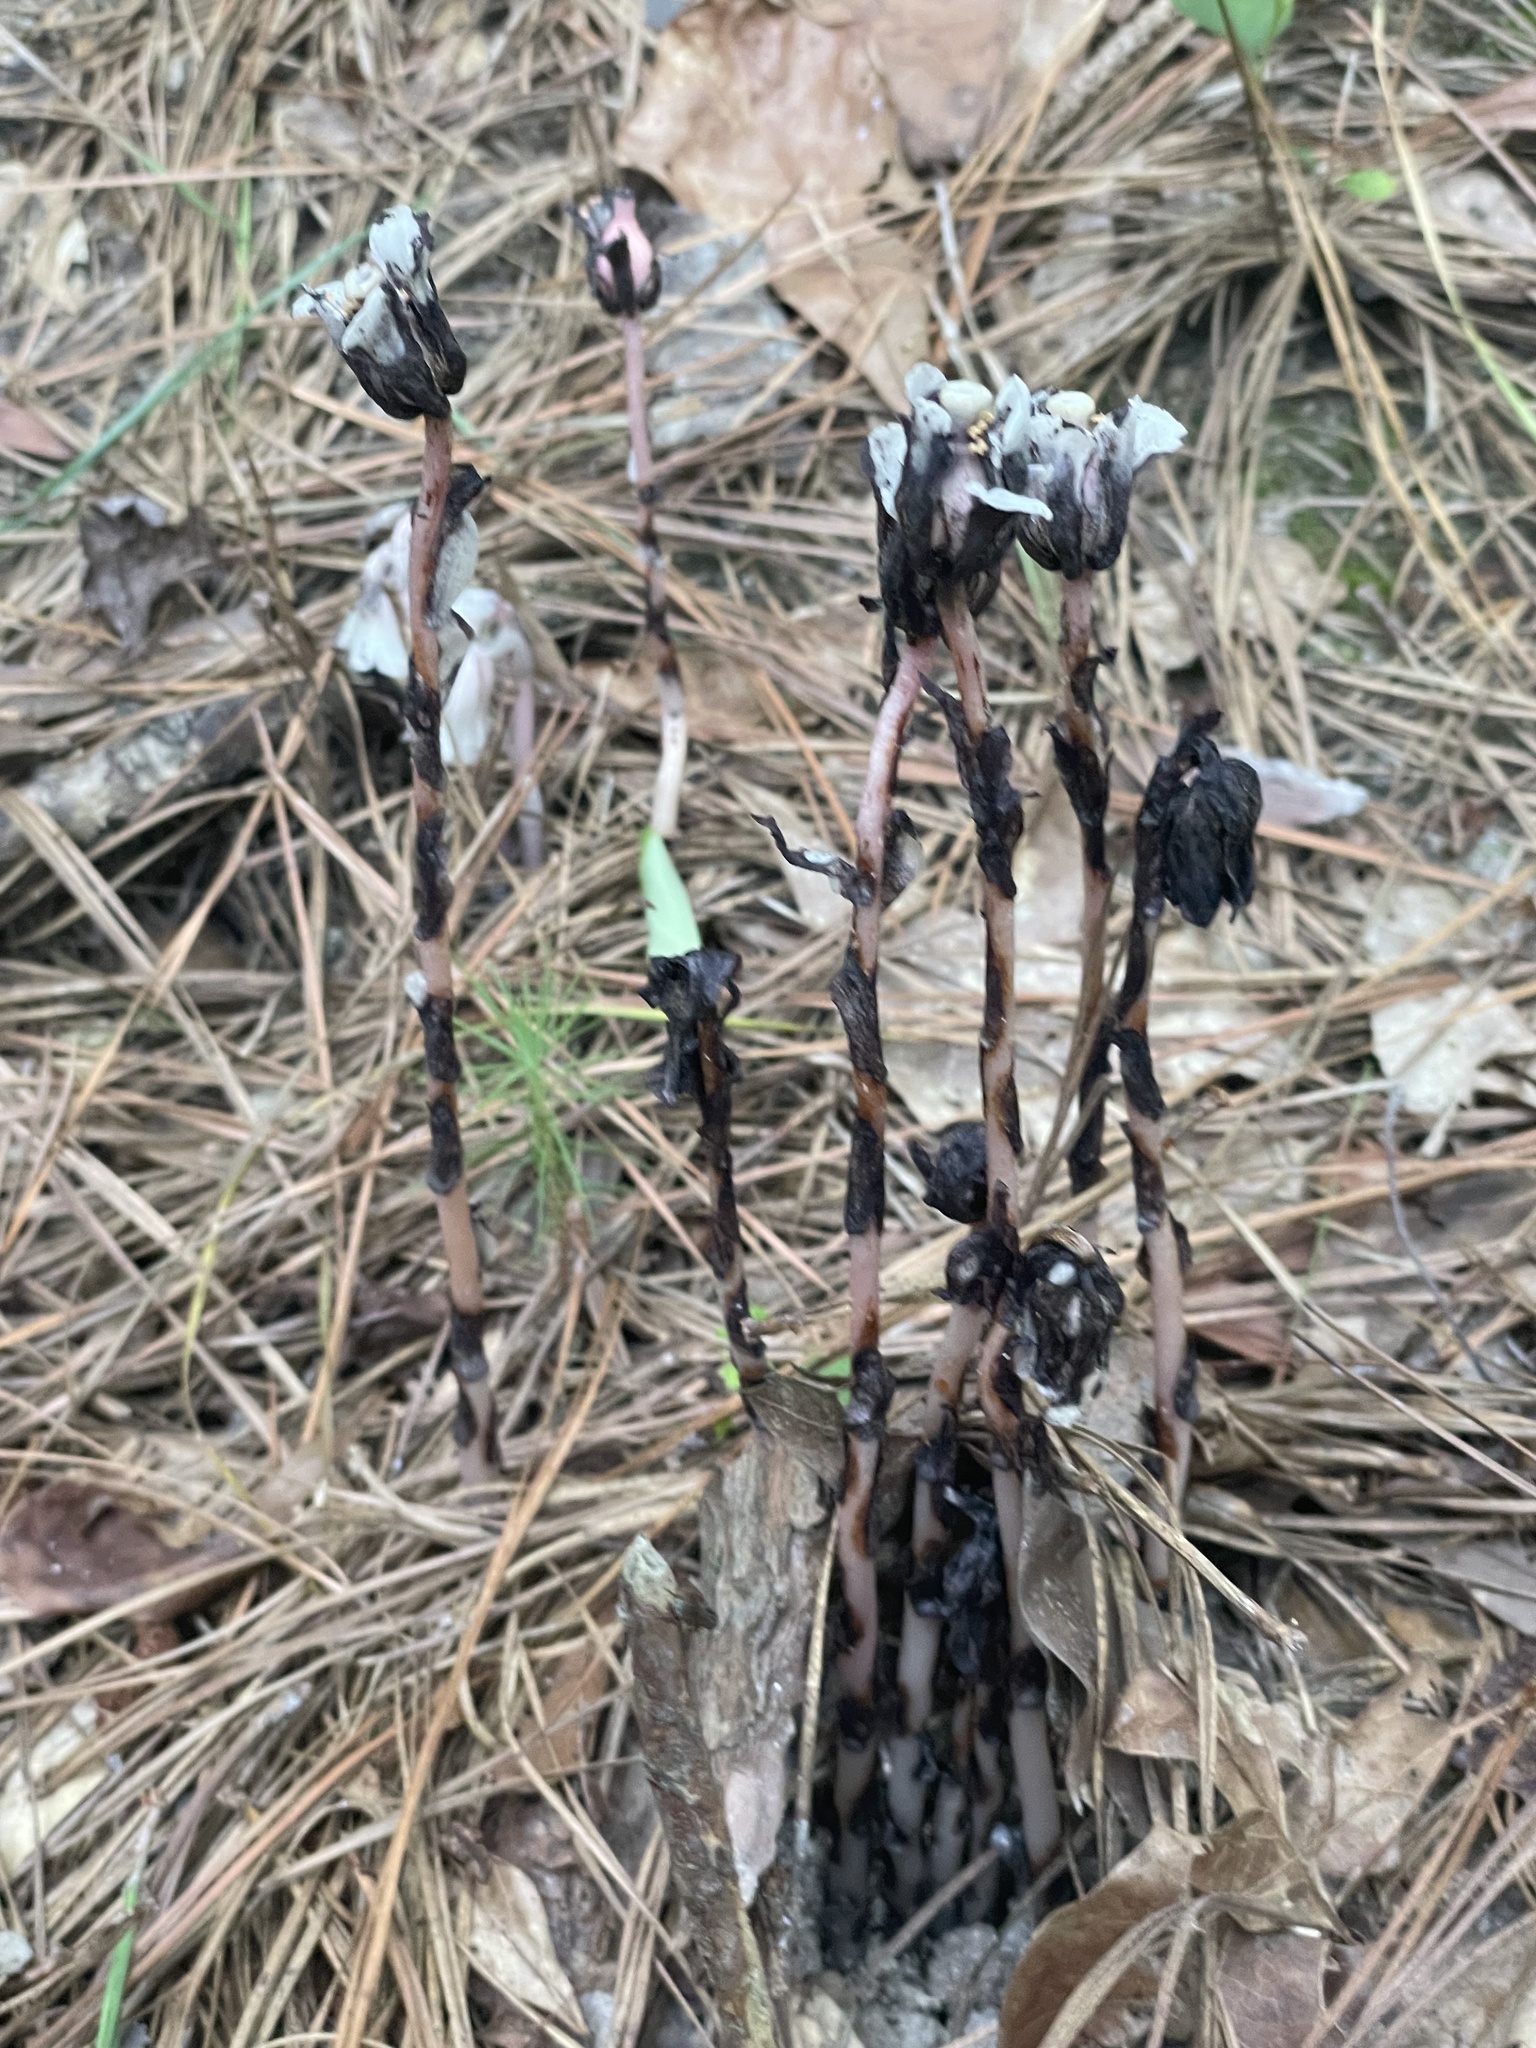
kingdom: Plantae
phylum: Tracheophyta
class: Magnoliopsida
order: Ericales
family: Ericaceae
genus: Monotropa
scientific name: Monotropa uniflora
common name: Convulsion root
